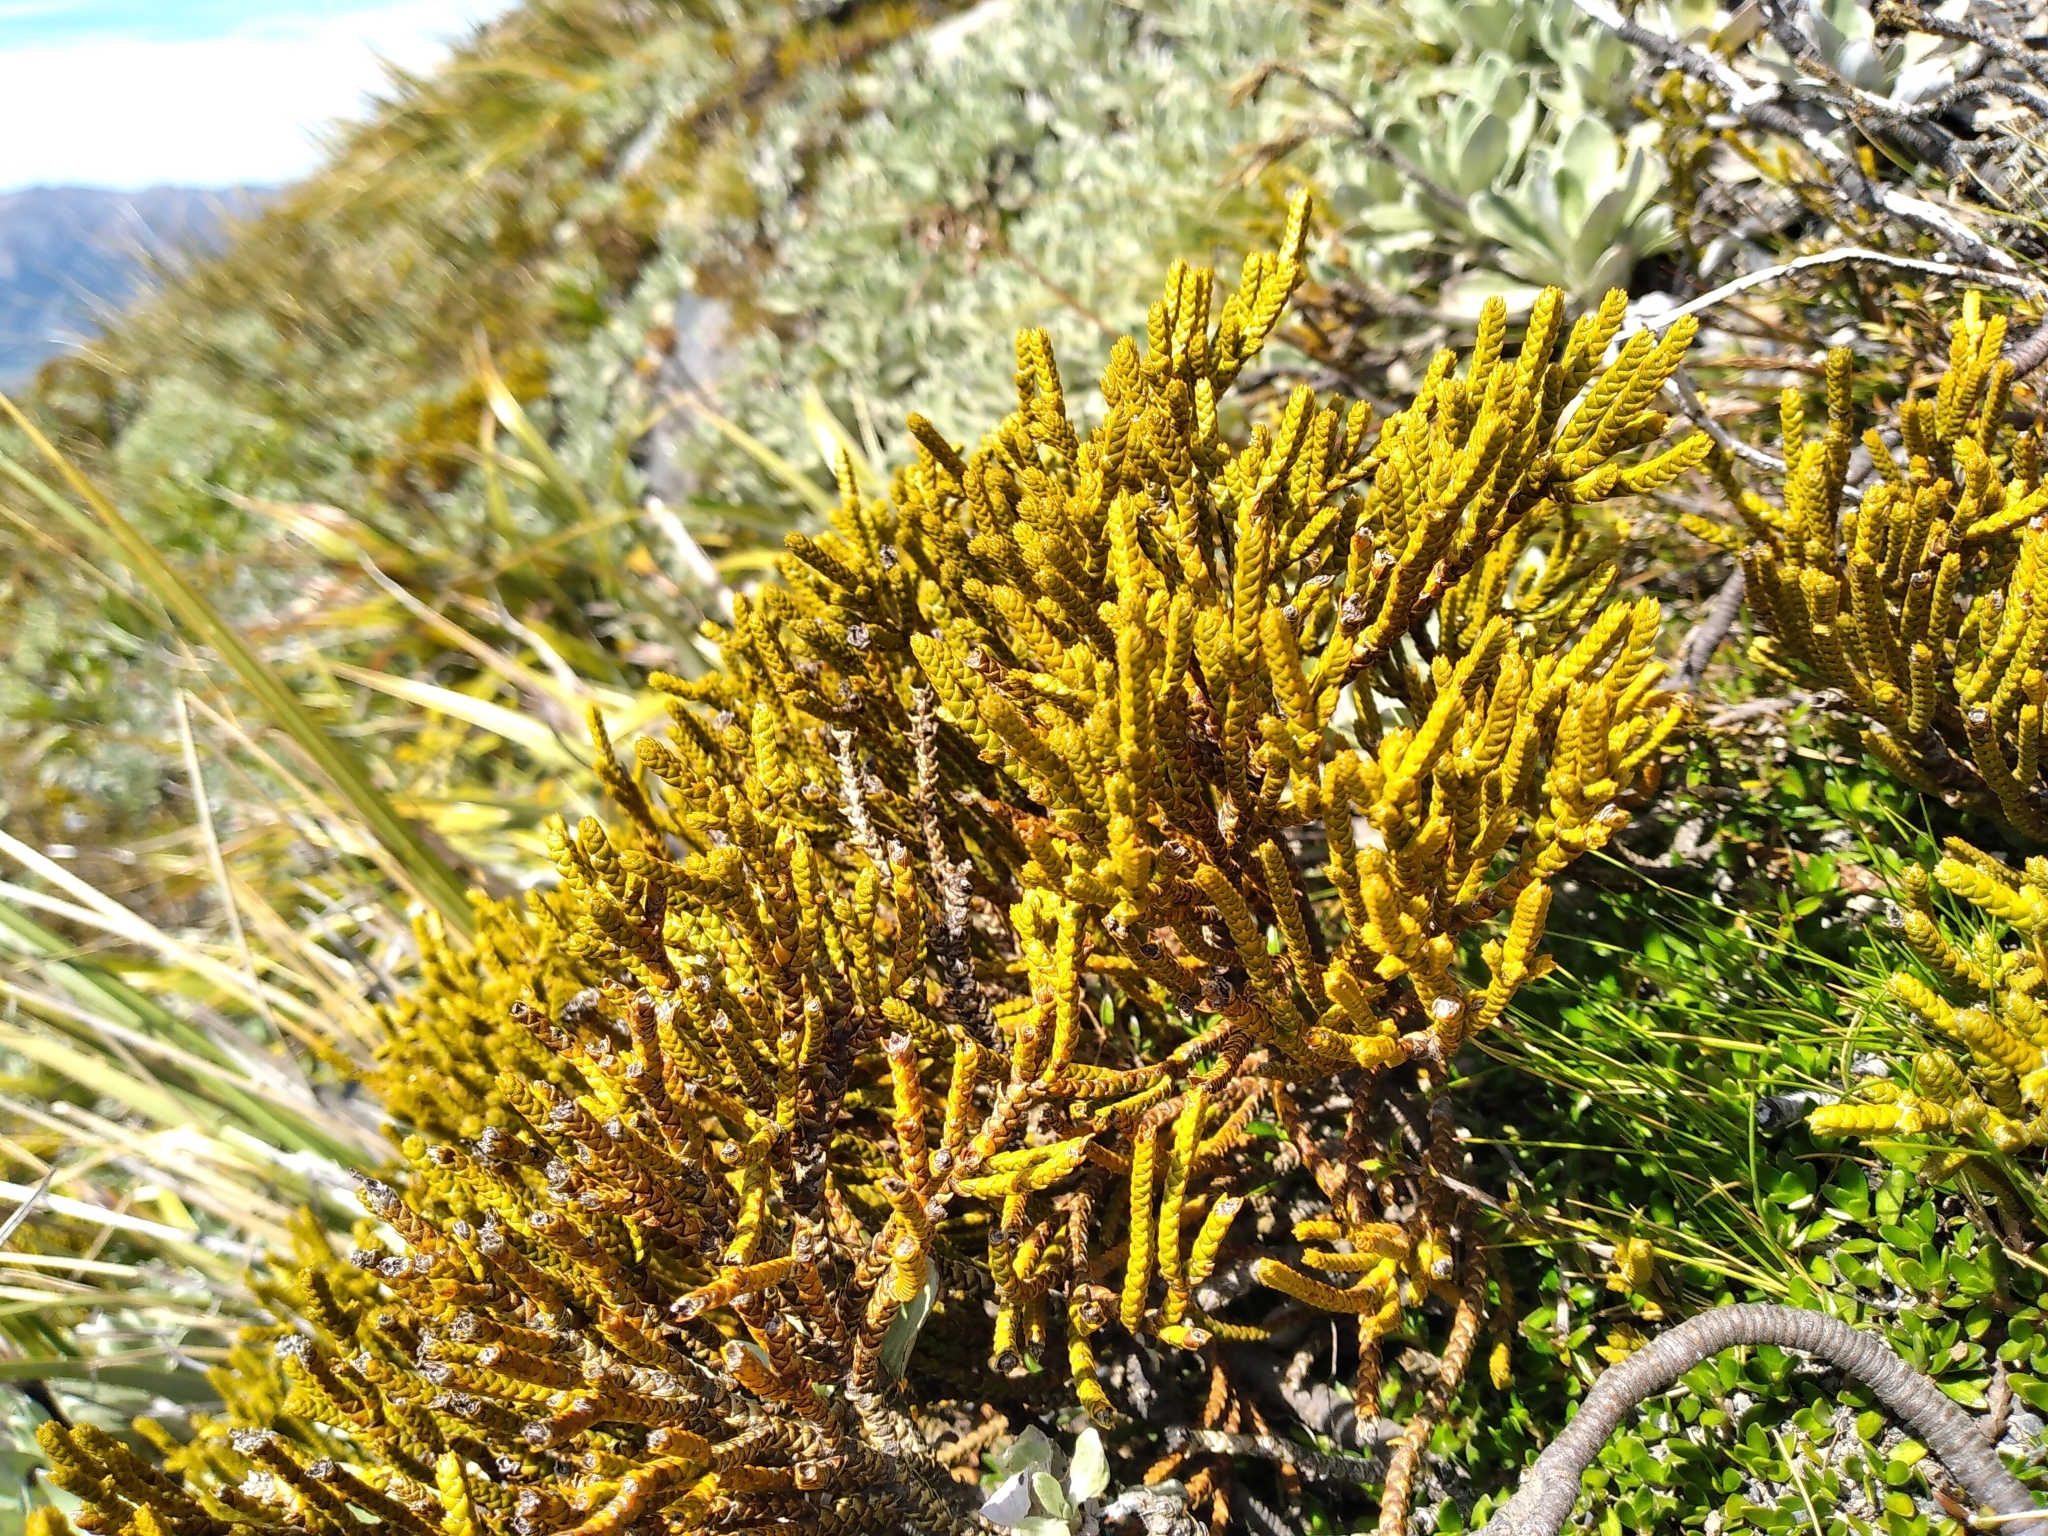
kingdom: Plantae
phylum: Tracheophyta
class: Magnoliopsida
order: Lamiales
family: Plantaginaceae
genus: Veronica
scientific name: Veronica lycopodioides
